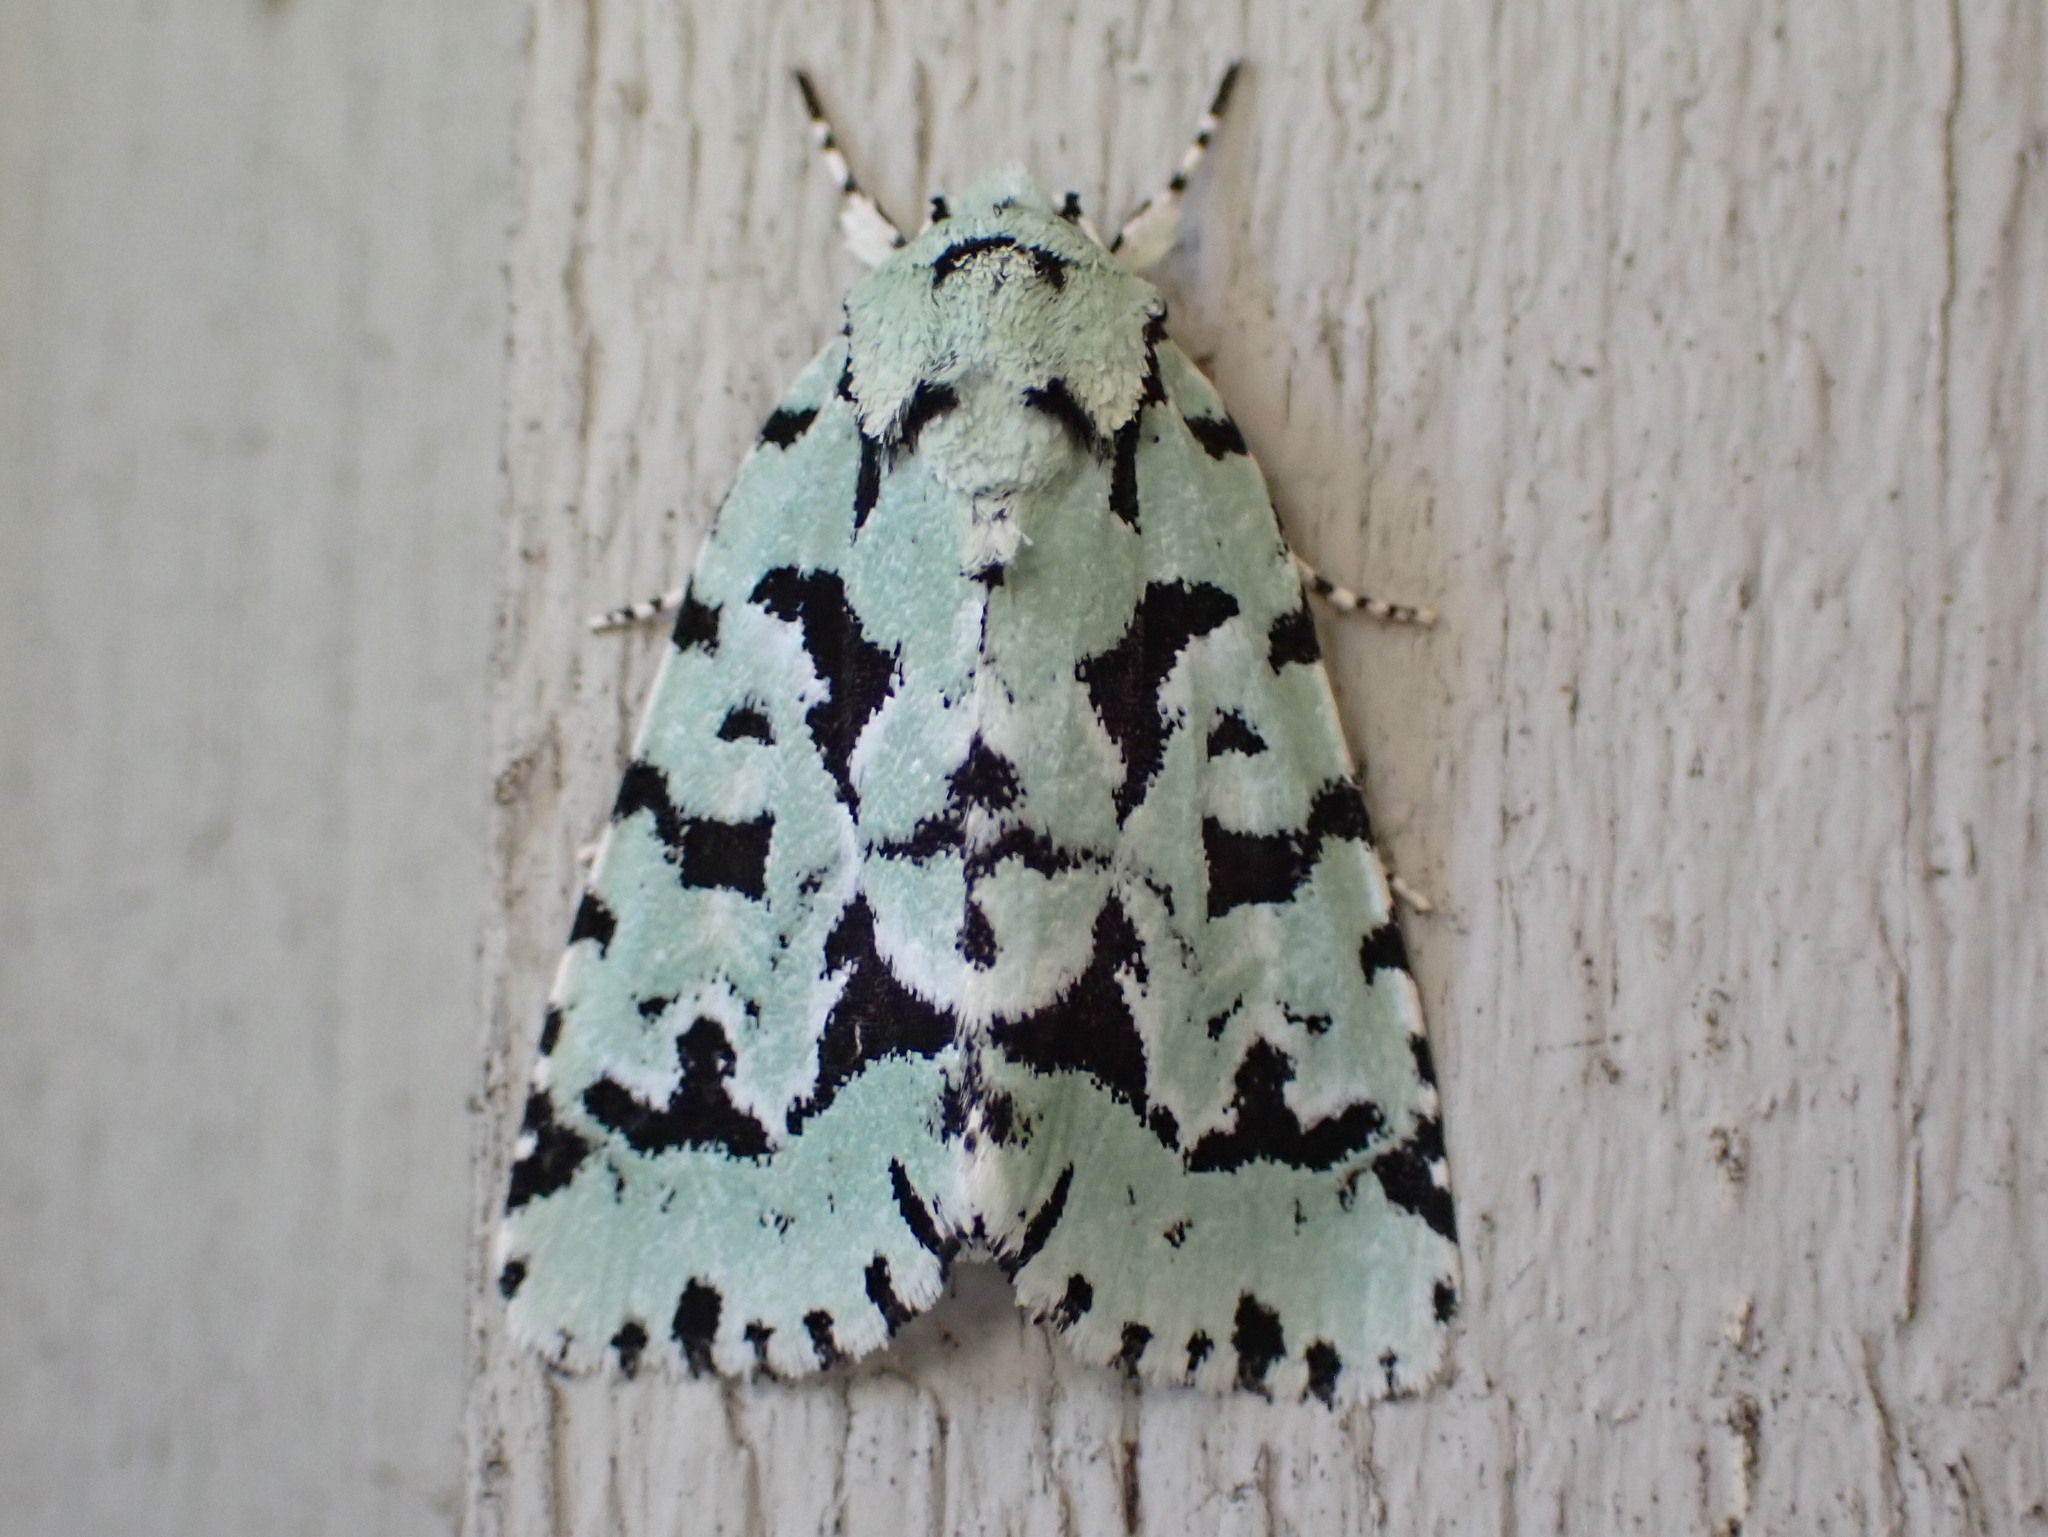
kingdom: Animalia
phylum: Arthropoda
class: Insecta
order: Lepidoptera
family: Noctuidae
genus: Acronicta
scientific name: Acronicta fallax
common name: Green marvel
